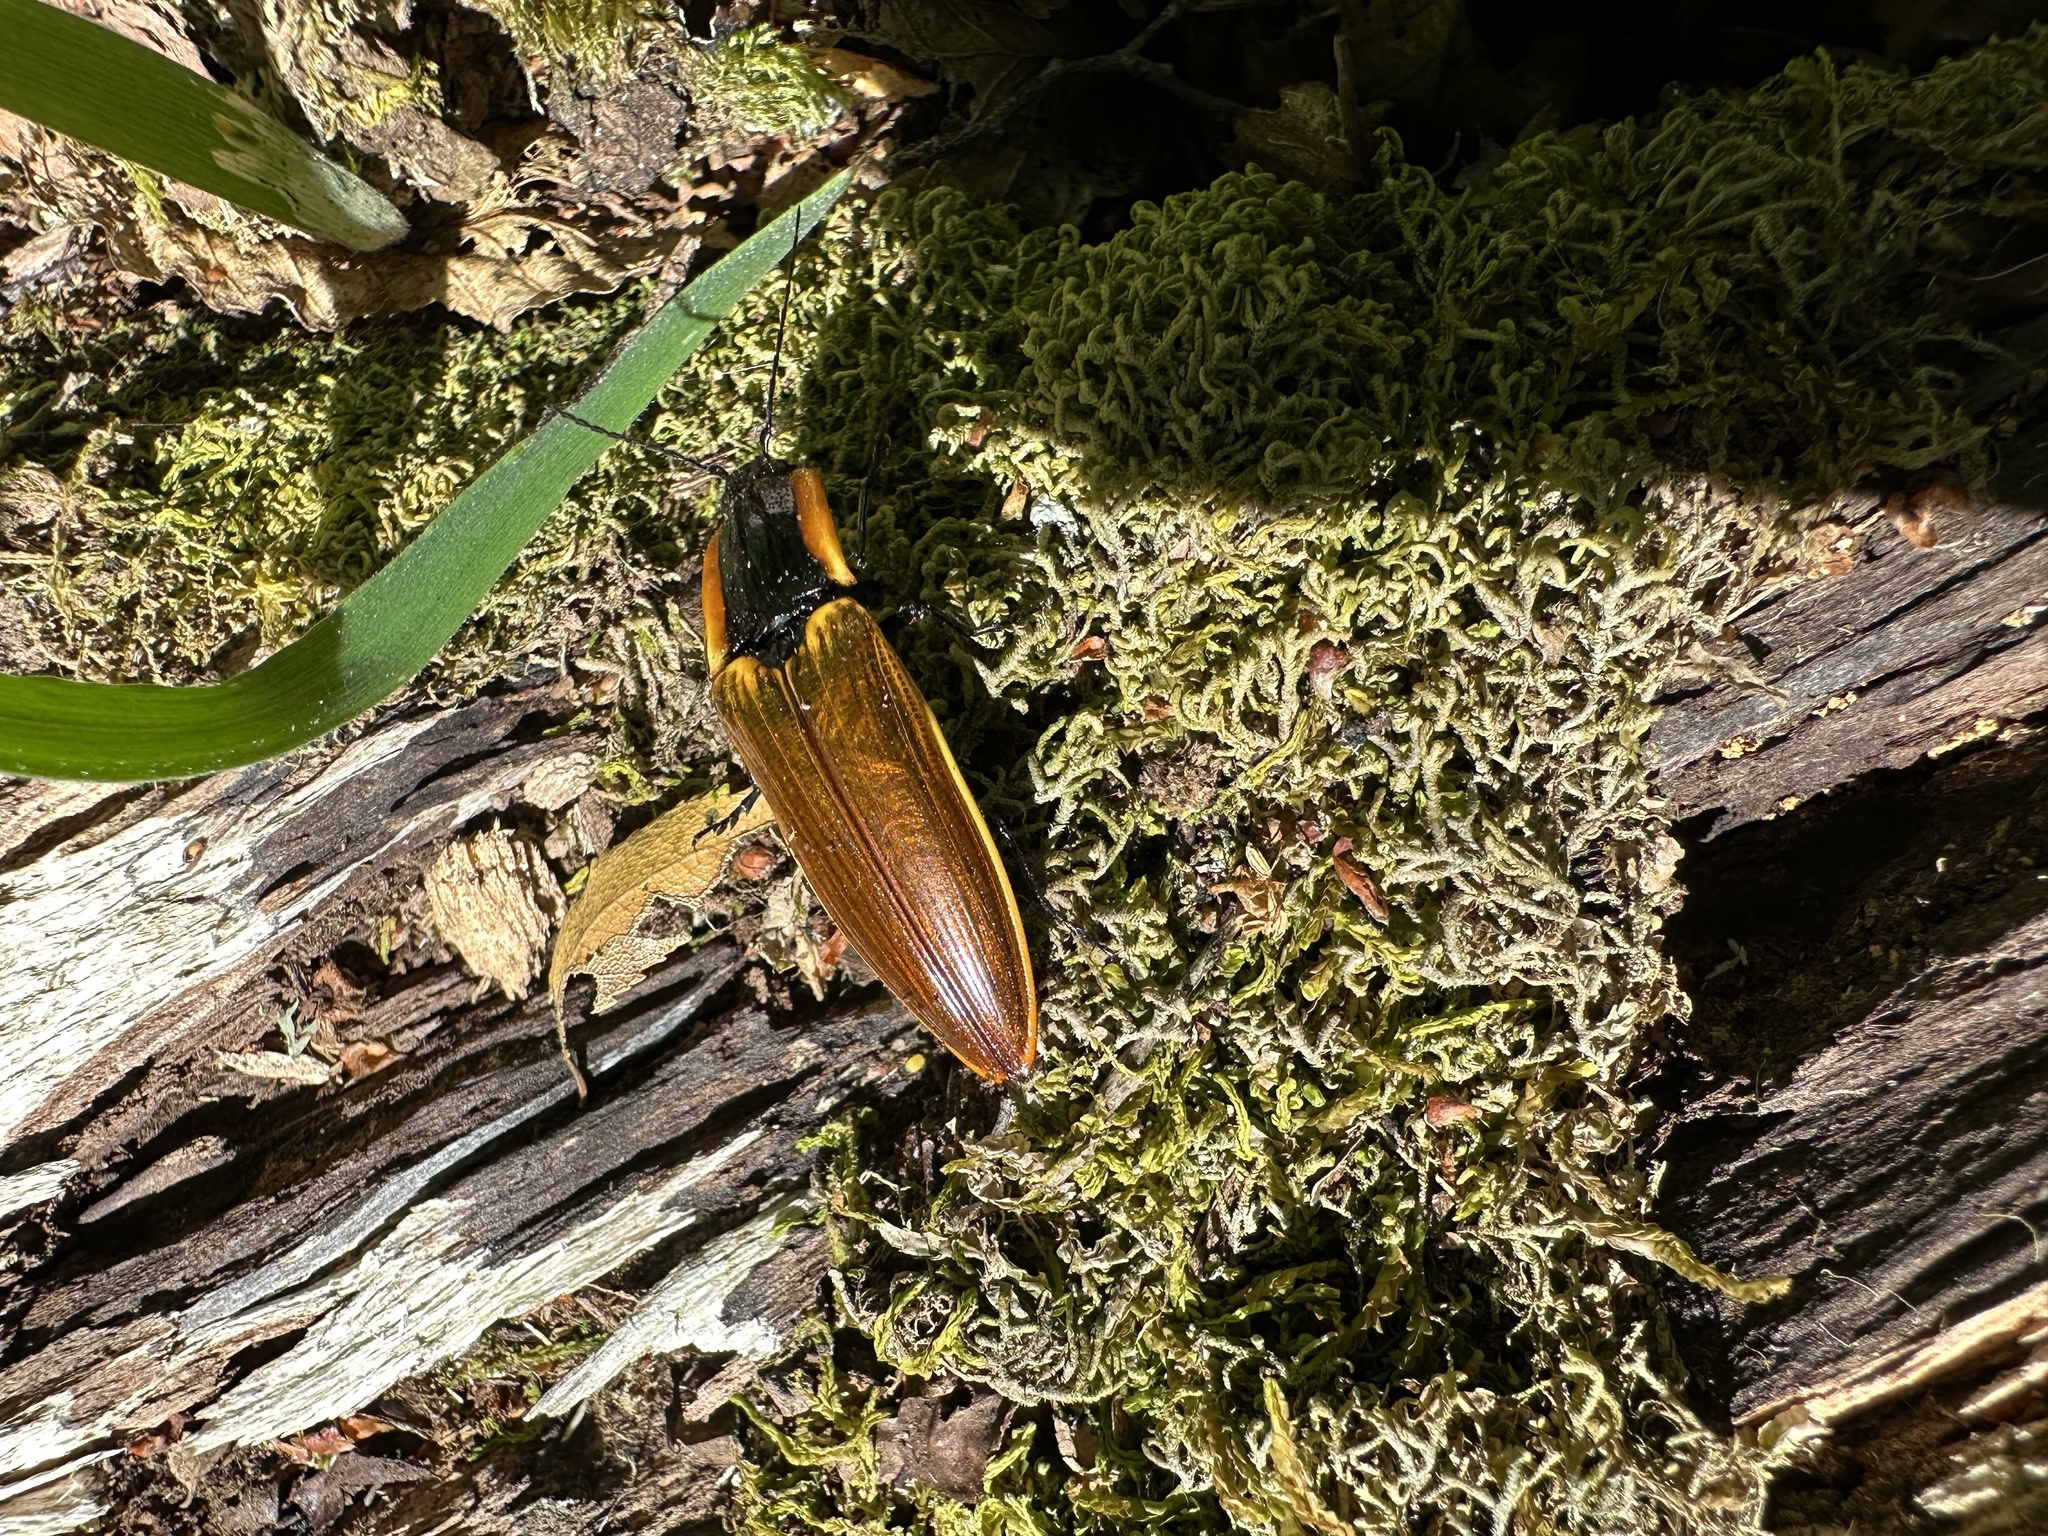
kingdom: Animalia
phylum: Arthropoda
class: Insecta
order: Coleoptera
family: Elateridae
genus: Semiotus
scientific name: Semiotus
